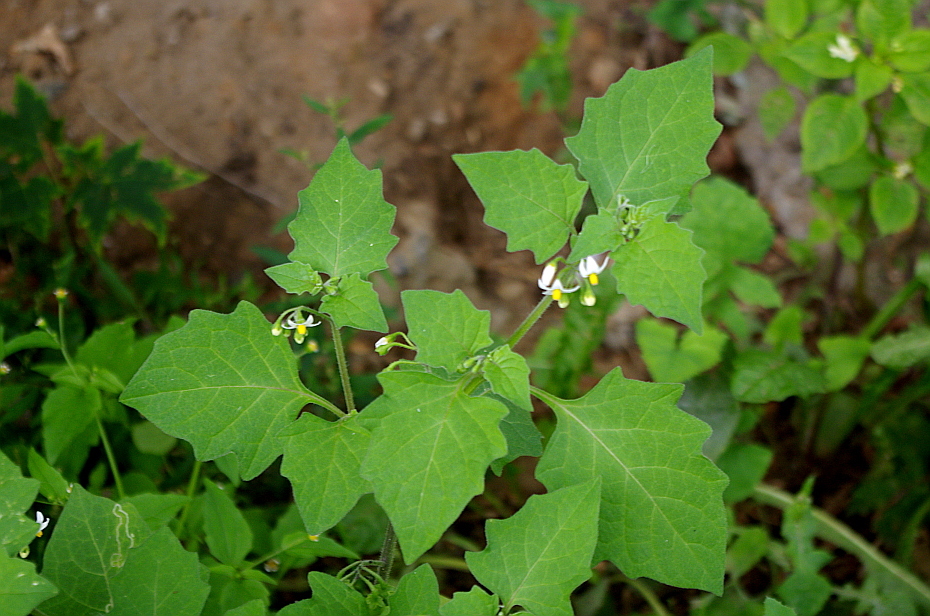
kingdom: Plantae
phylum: Tracheophyta
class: Magnoliopsida
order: Solanales
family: Solanaceae
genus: Solanum
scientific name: Solanum nigrum
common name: Black nightshade
